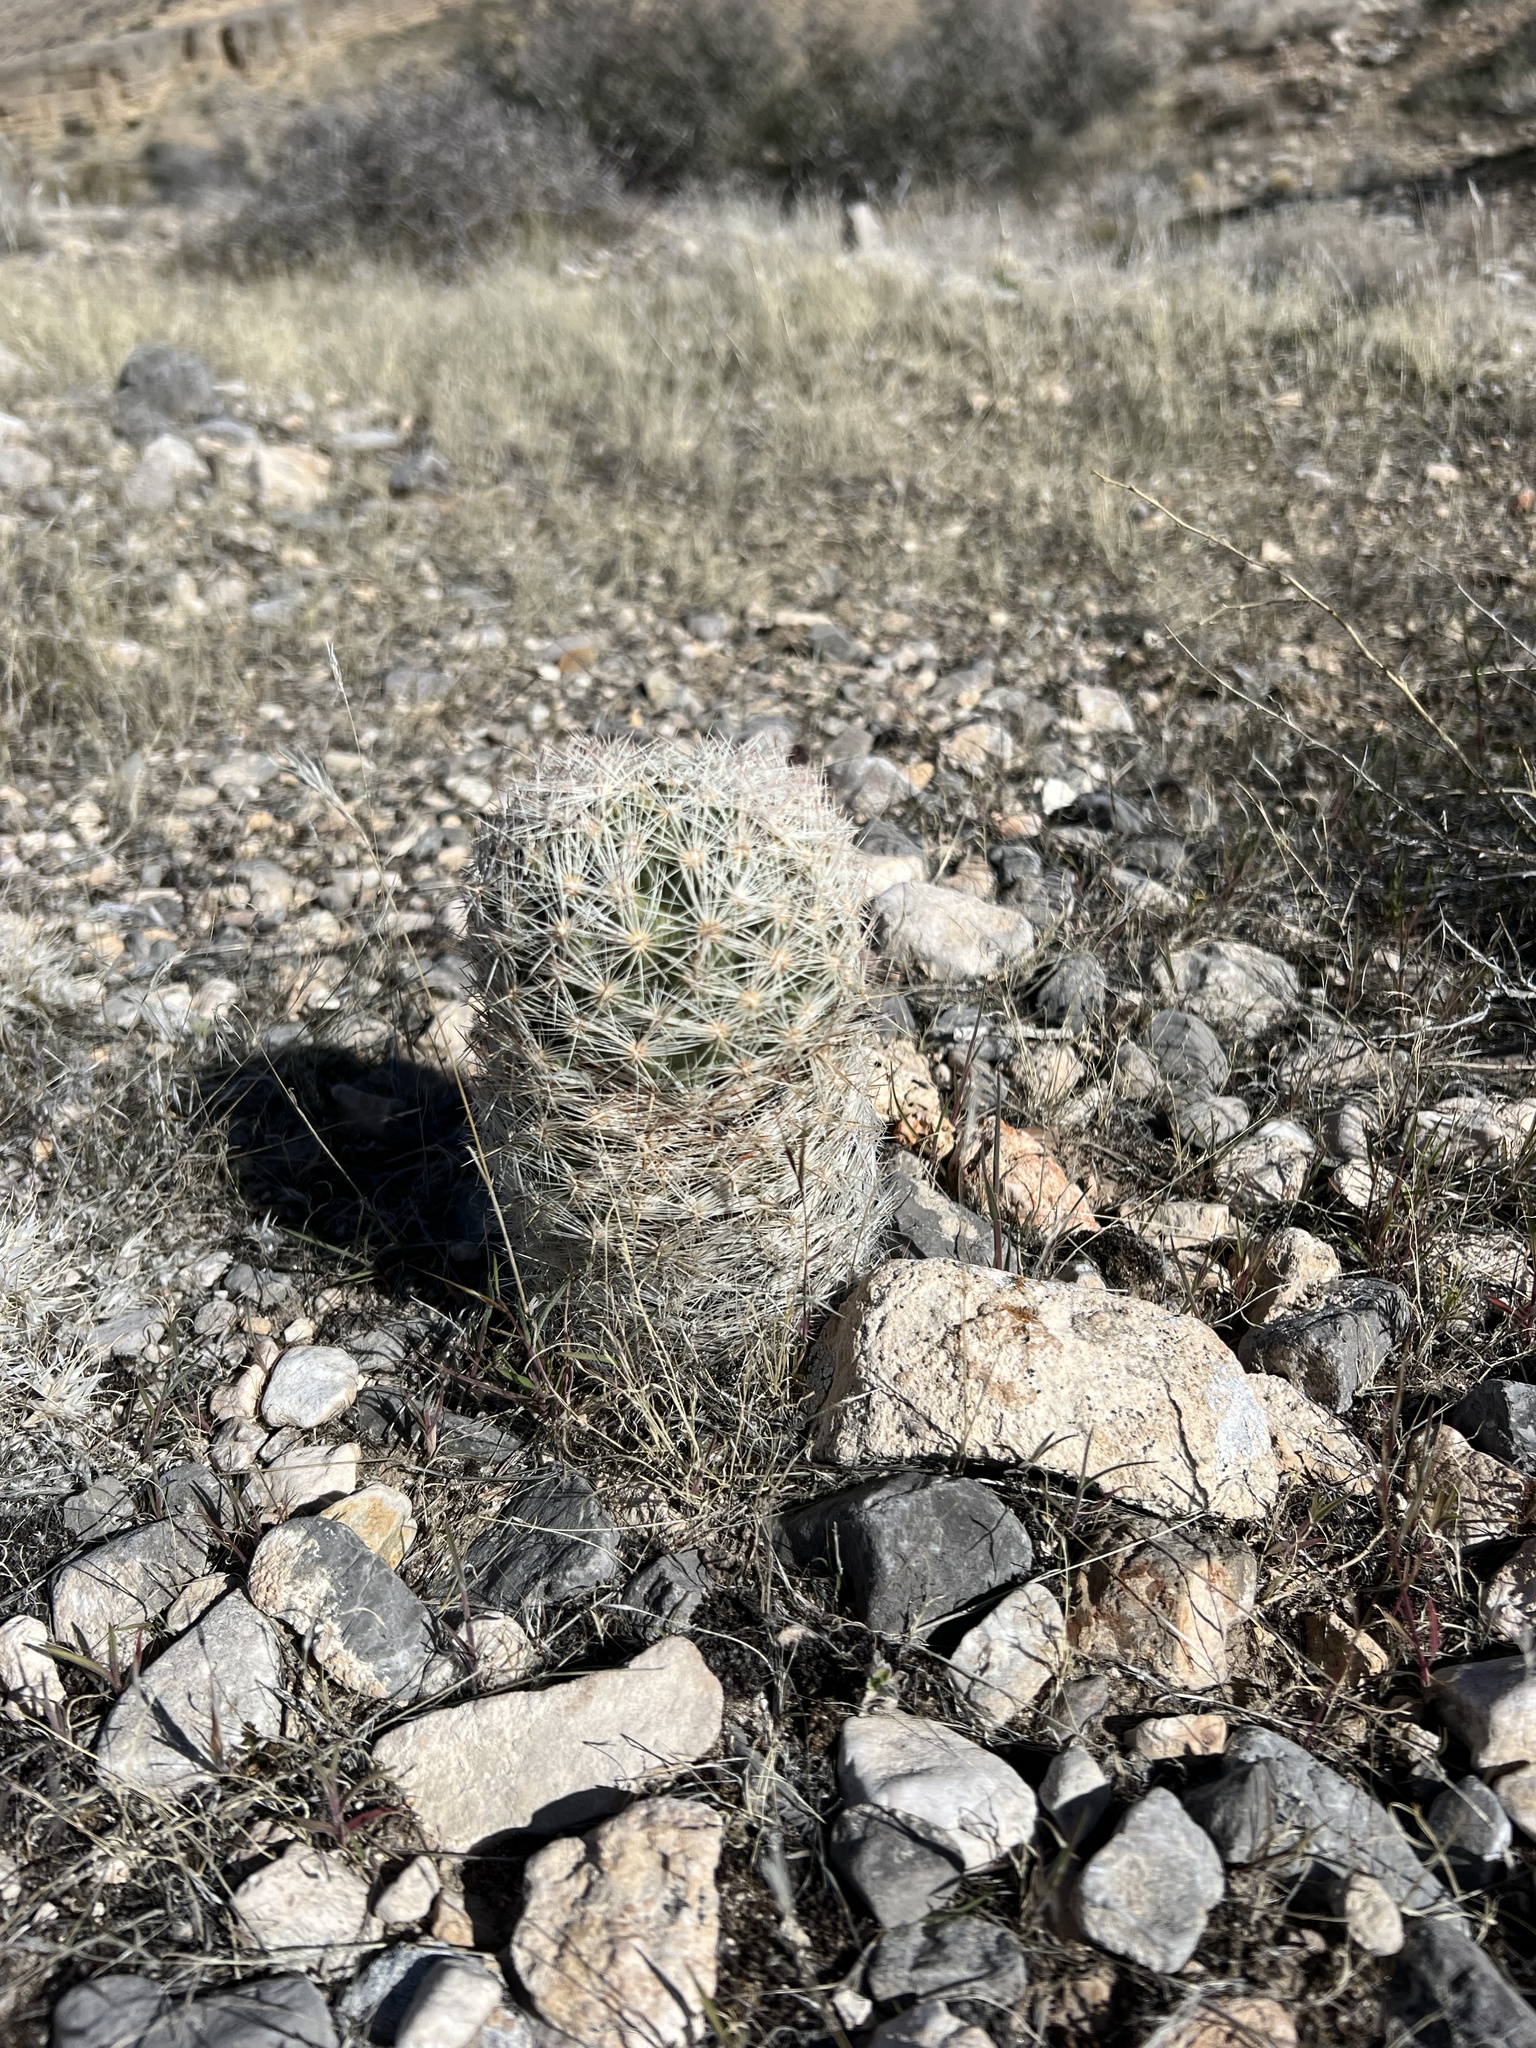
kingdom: Plantae
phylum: Tracheophyta
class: Magnoliopsida
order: Caryophyllales
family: Cactaceae
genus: Pelecyphora
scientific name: Pelecyphora dasyacantha
